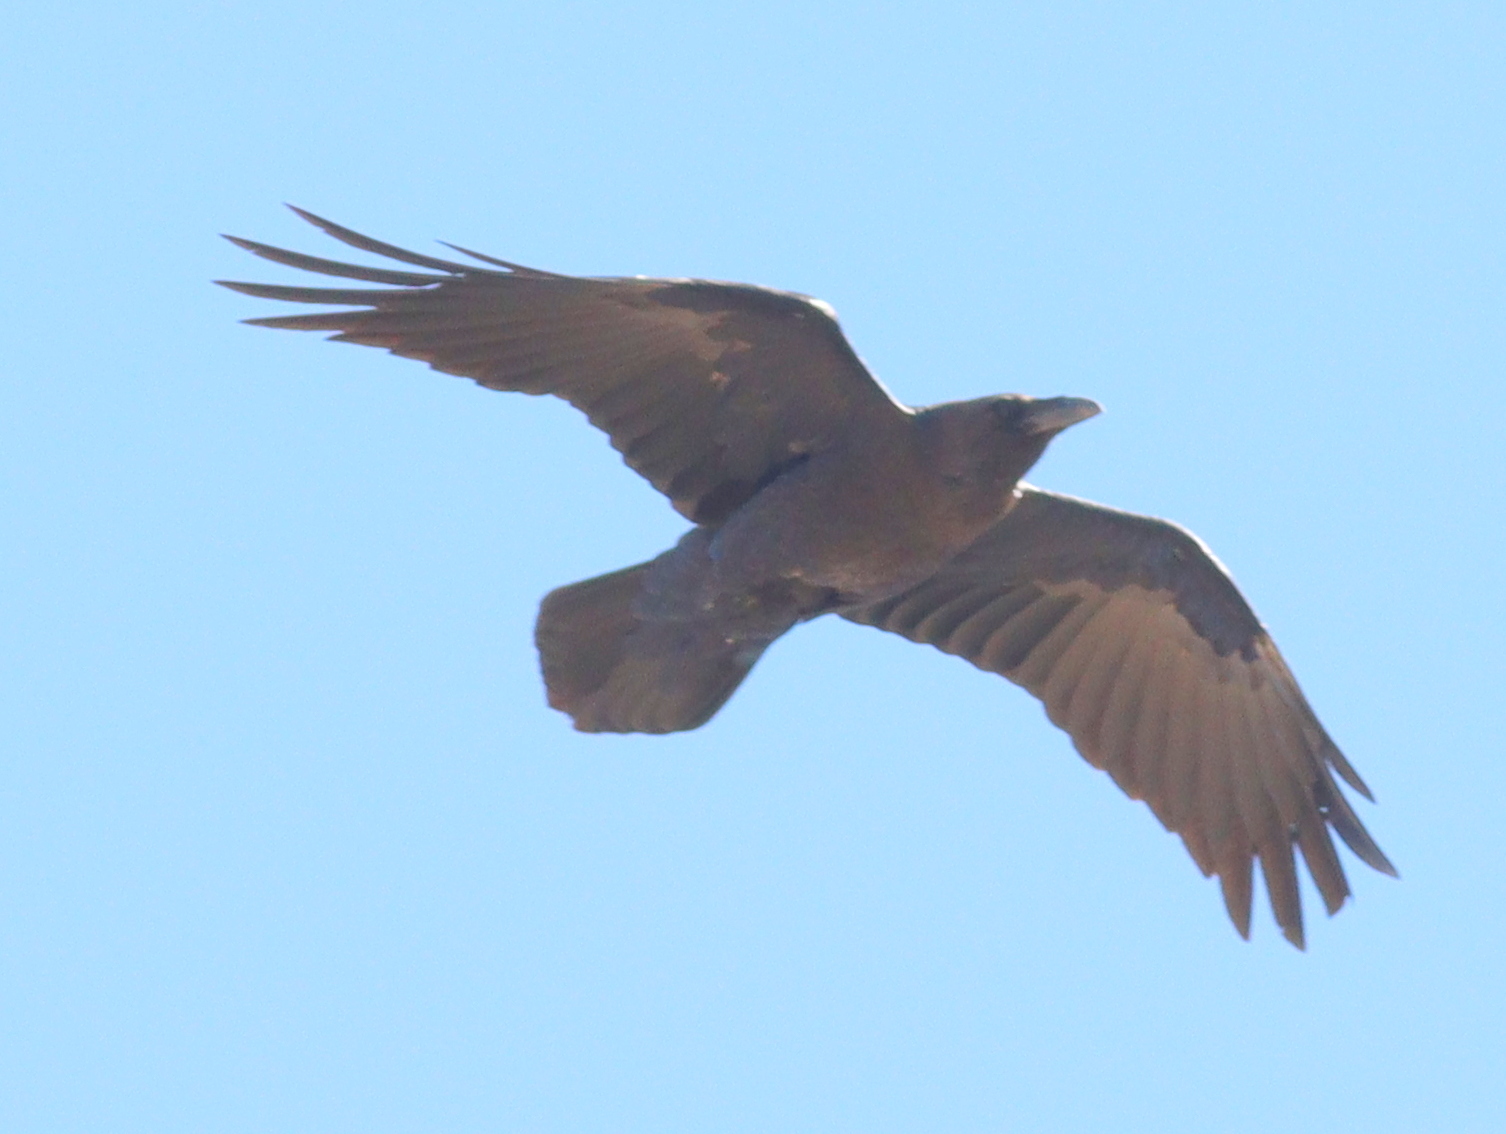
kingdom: Animalia
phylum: Chordata
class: Aves
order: Passeriformes
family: Corvidae
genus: Corvus
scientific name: Corvus ruficollis
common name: Brown-necked raven
